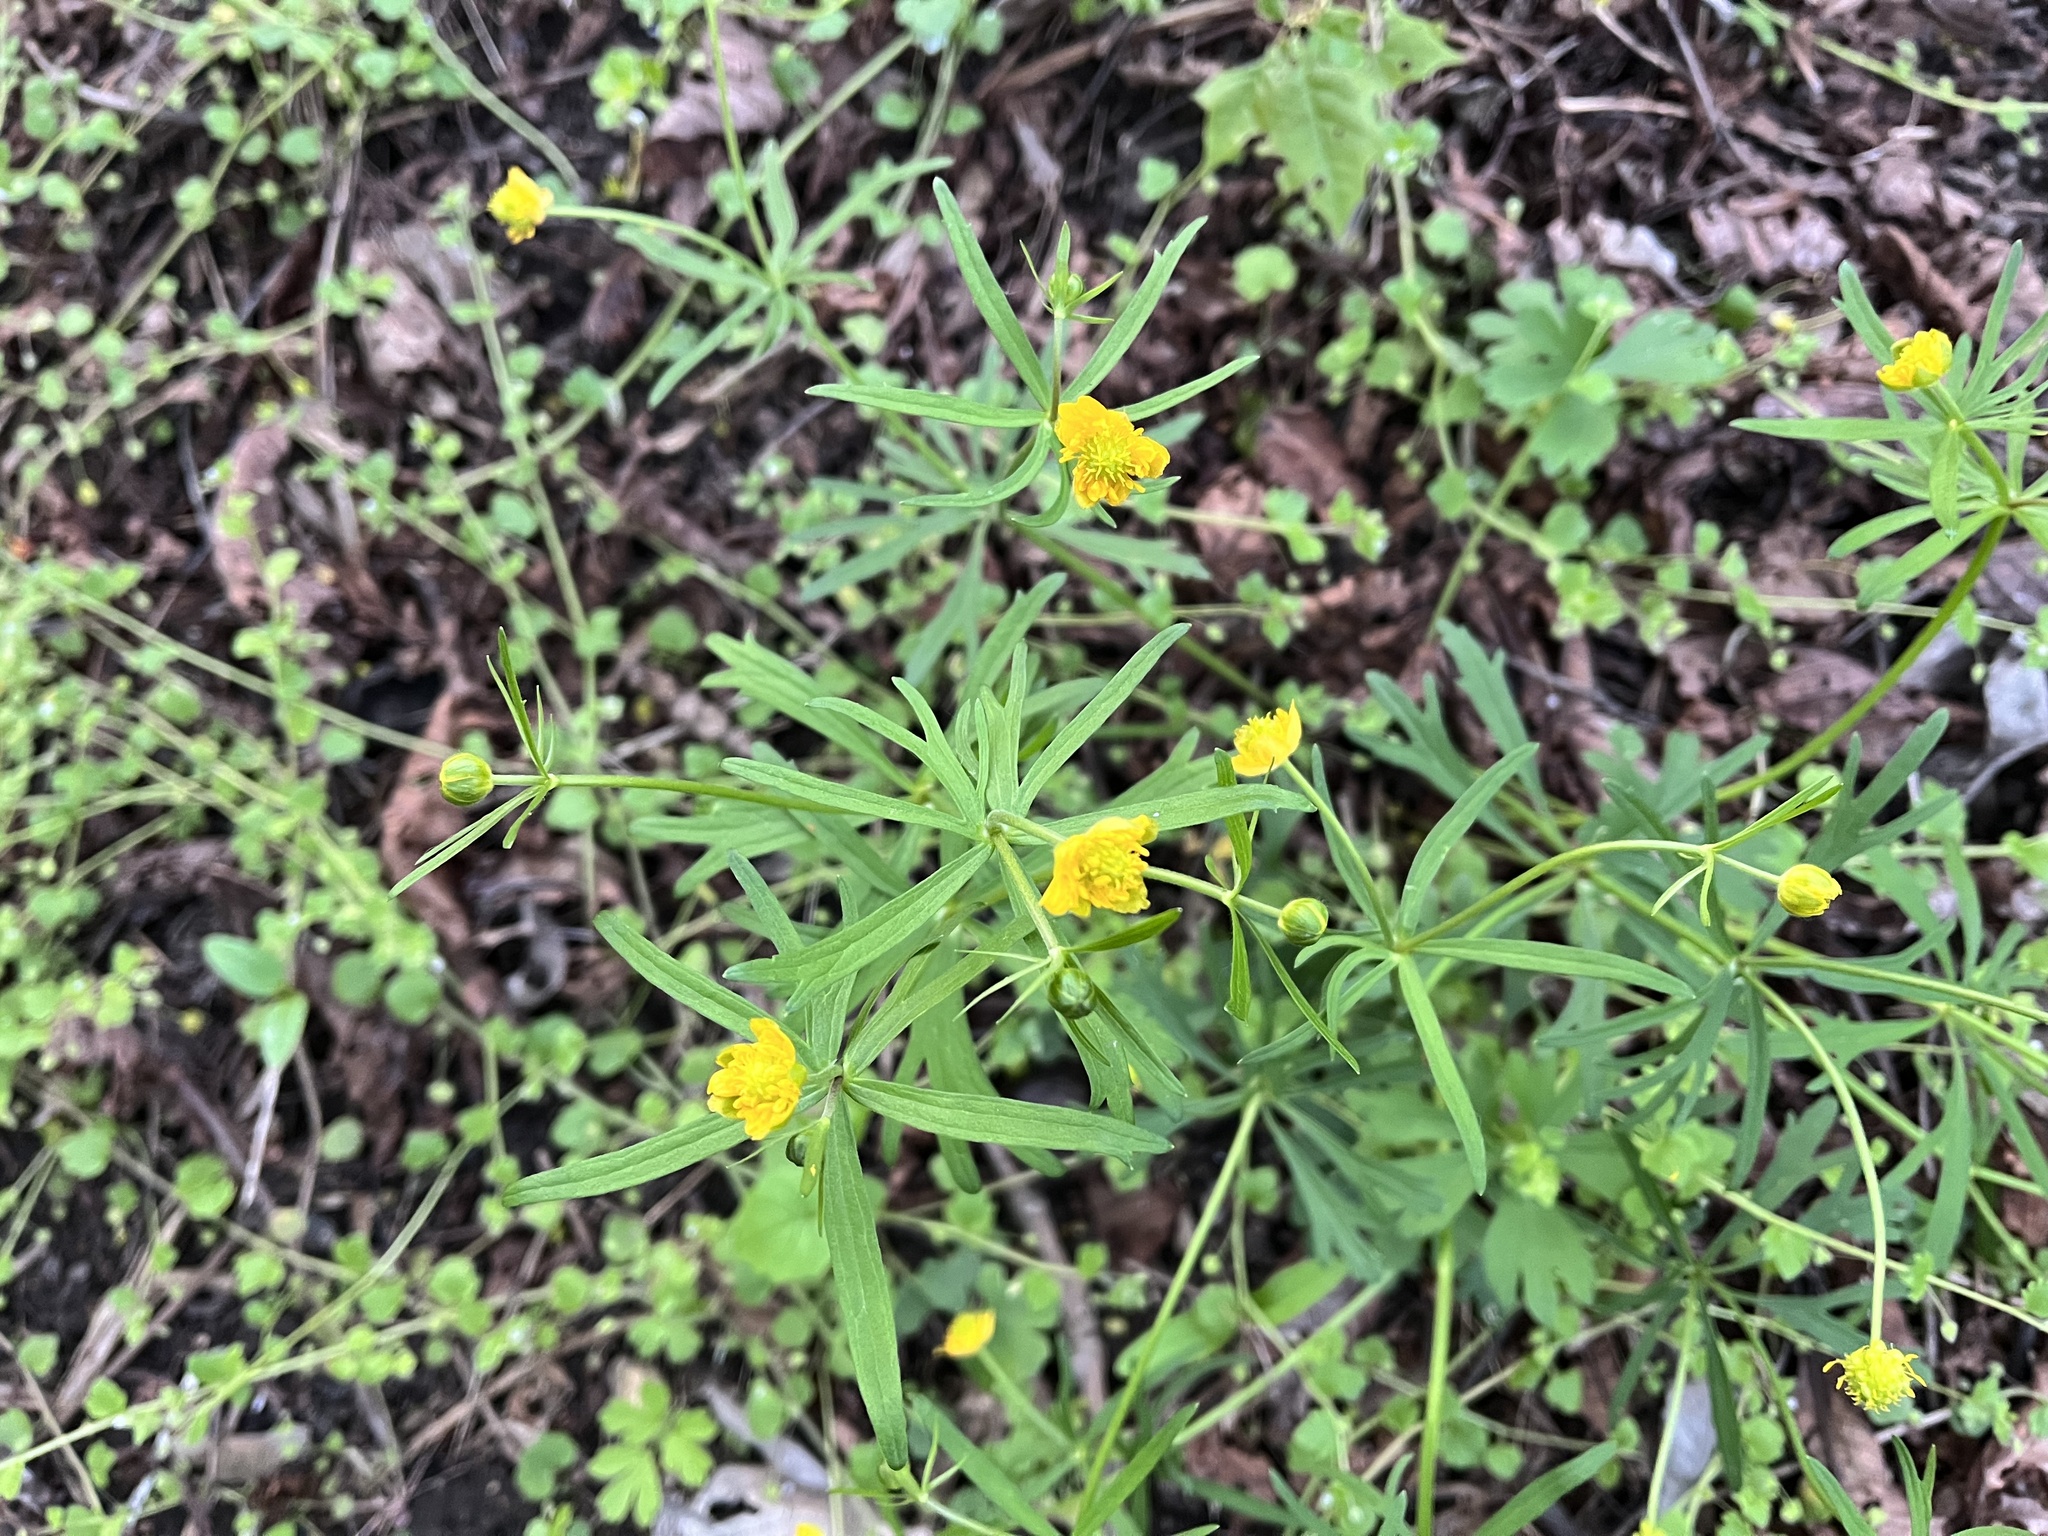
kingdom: Plantae
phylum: Tracheophyta
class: Magnoliopsida
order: Ranunculales
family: Ranunculaceae
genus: Ranunculus
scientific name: Ranunculus auricomus
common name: Goldilocks buttercup
